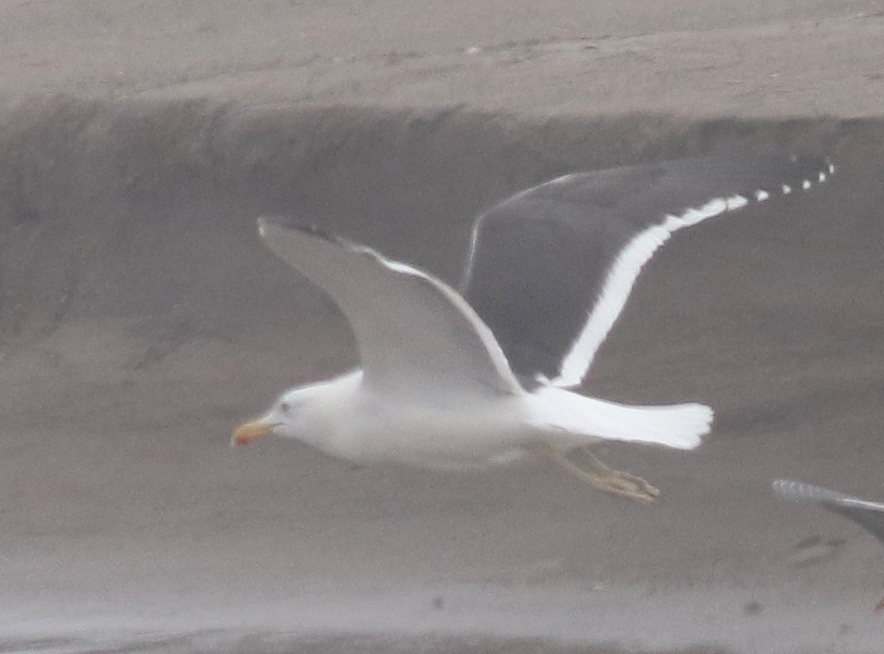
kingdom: Animalia
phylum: Chordata
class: Aves
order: Charadriiformes
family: Laridae
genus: Larus
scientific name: Larus dominicanus
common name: Kelp gull
